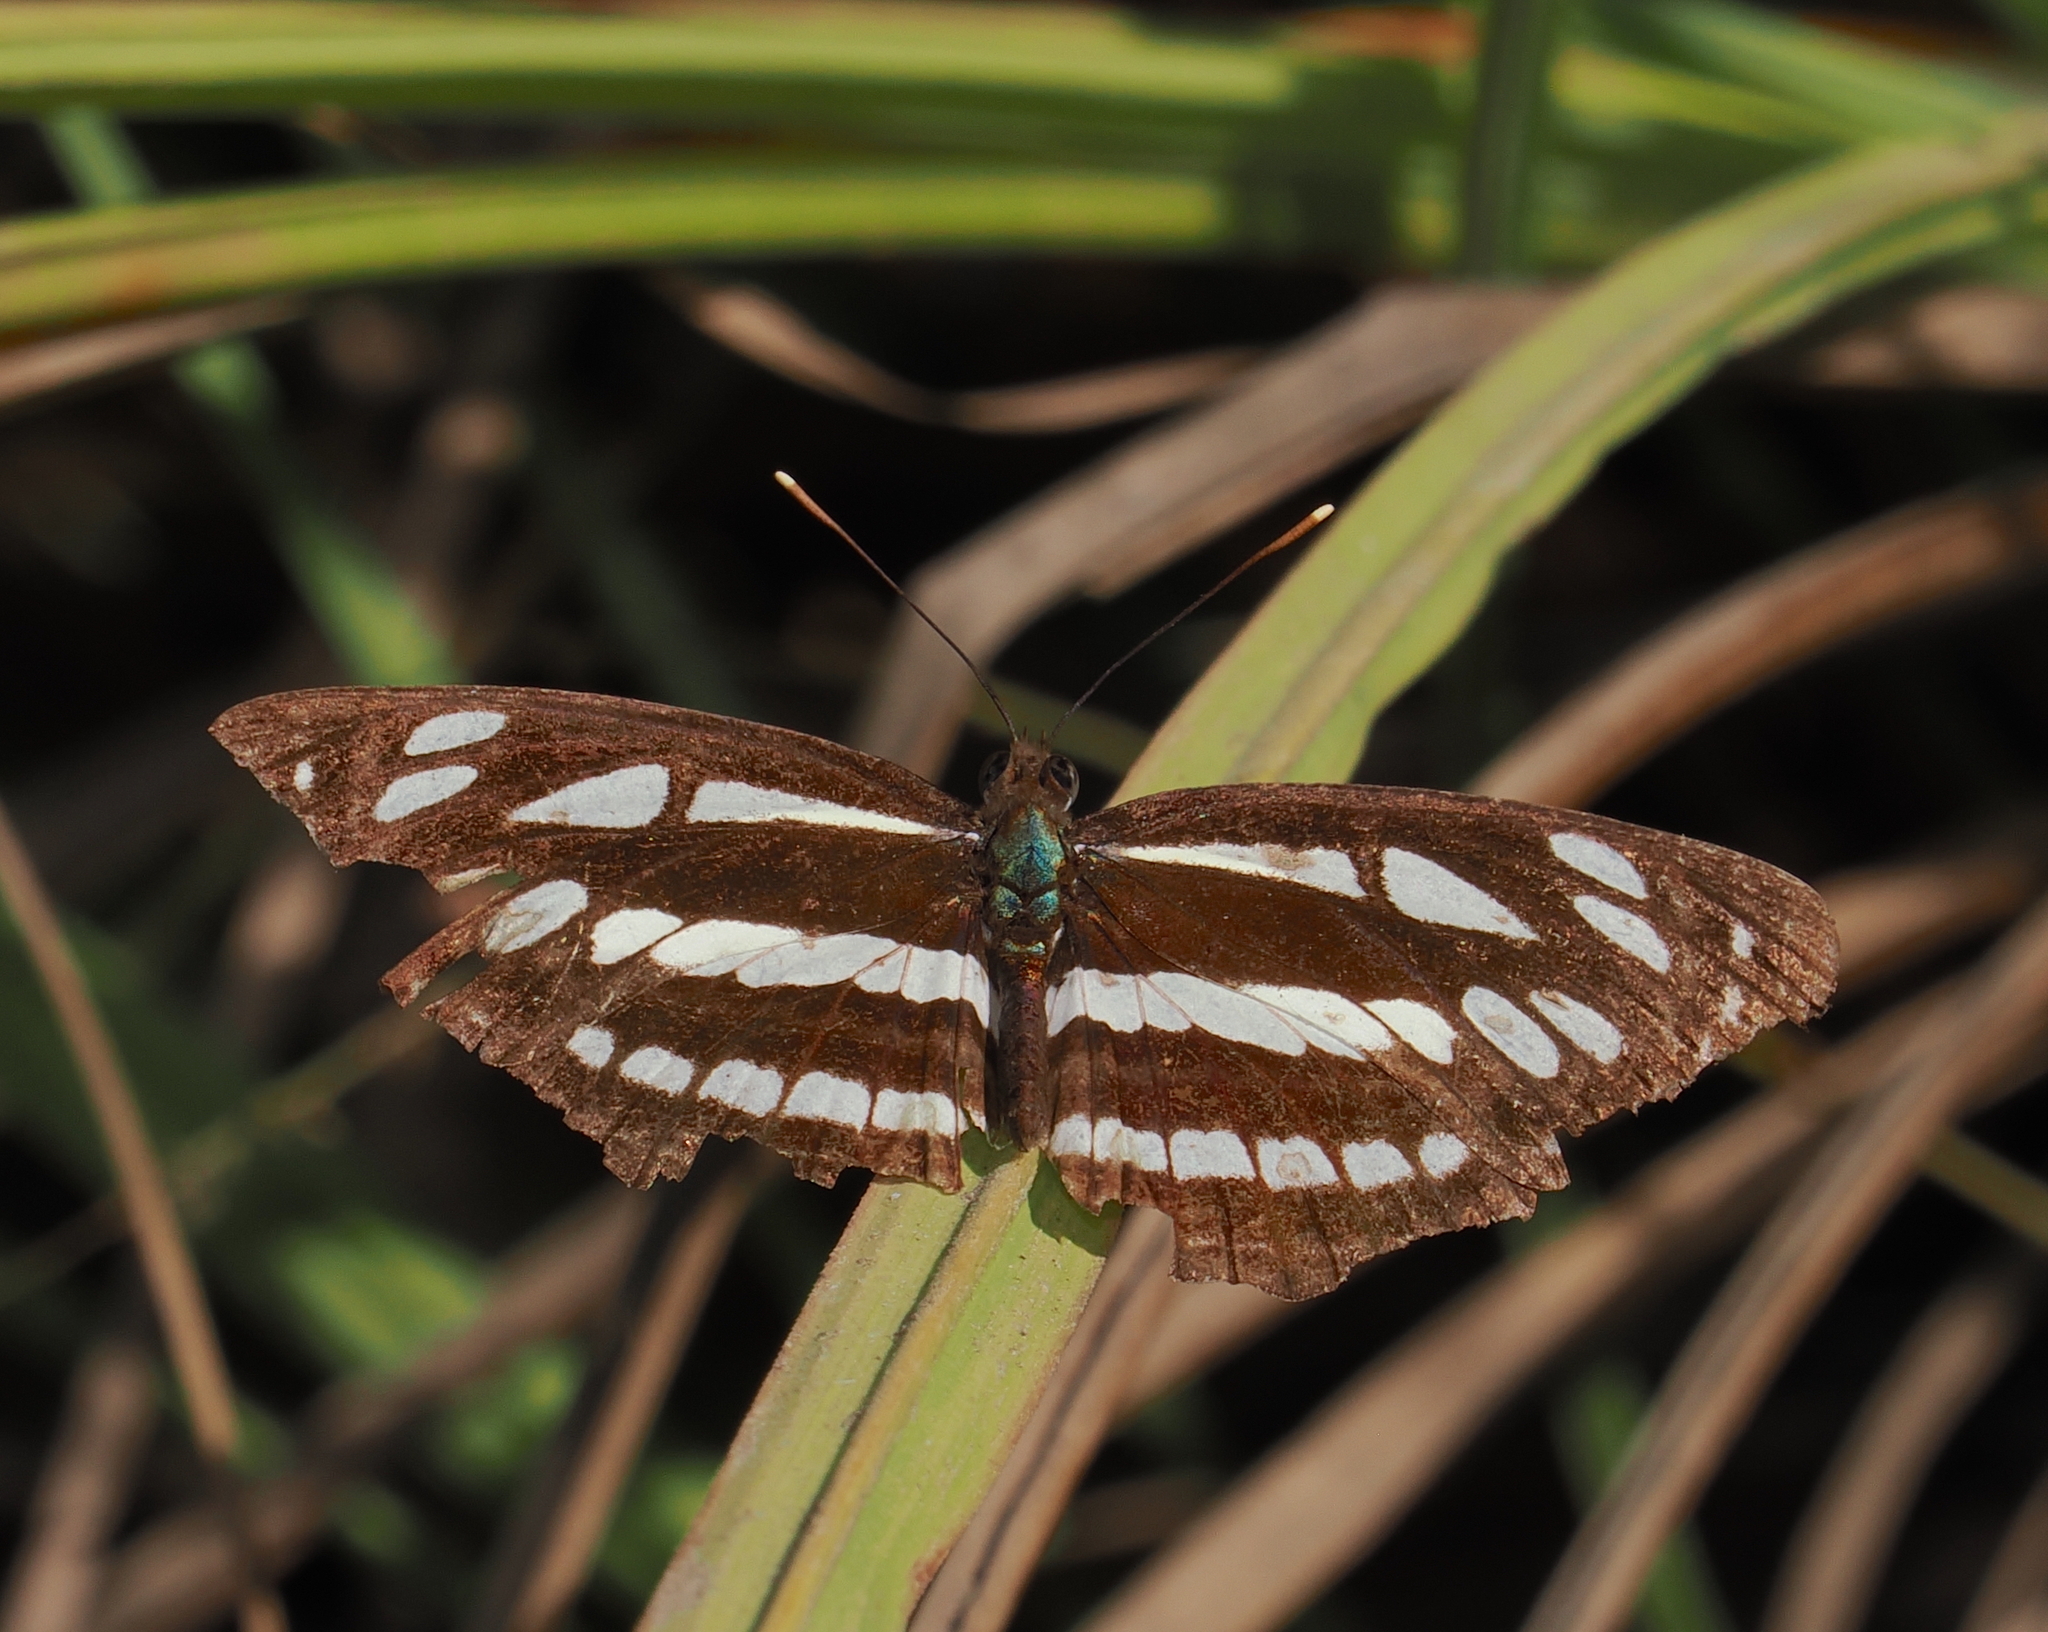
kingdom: Animalia
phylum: Arthropoda
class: Insecta
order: Lepidoptera
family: Nymphalidae
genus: Neptis
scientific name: Neptis hylas
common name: Common sailer
